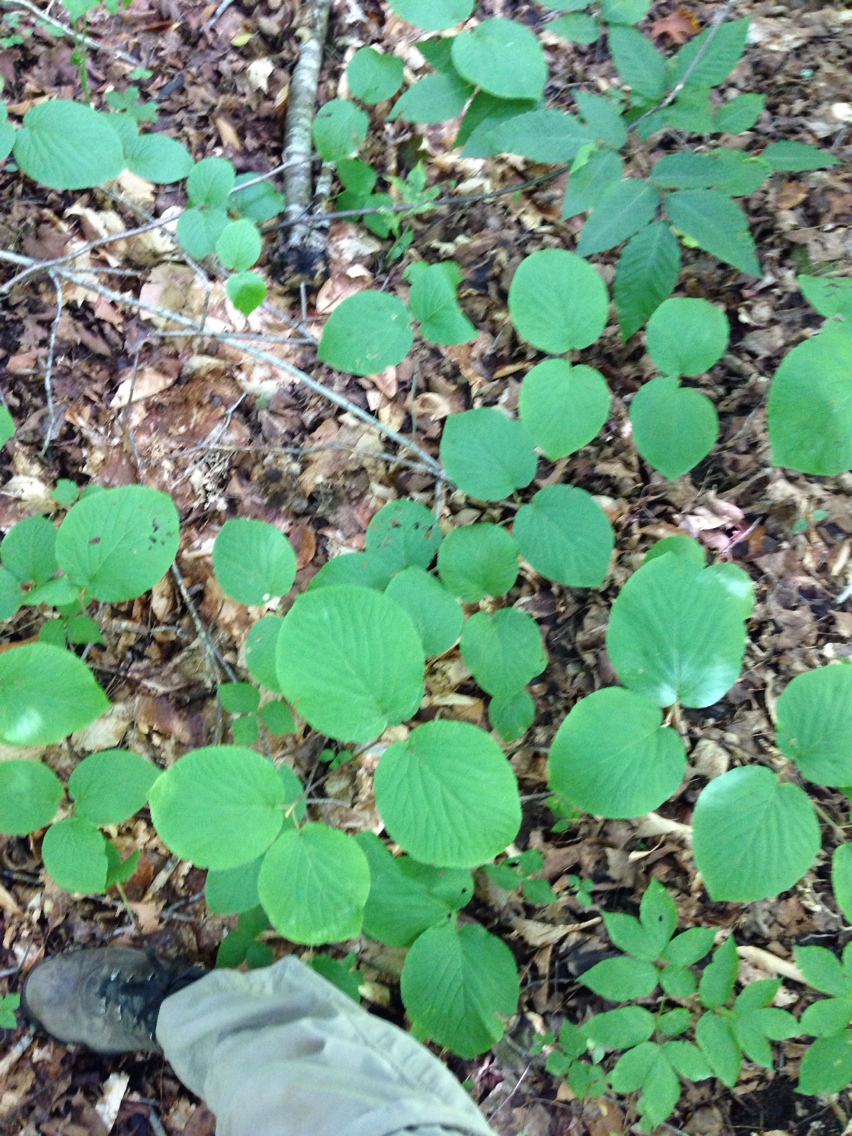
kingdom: Plantae
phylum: Tracheophyta
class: Magnoliopsida
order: Dipsacales
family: Viburnaceae
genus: Viburnum
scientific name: Viburnum lantanoides
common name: Hobblebush
